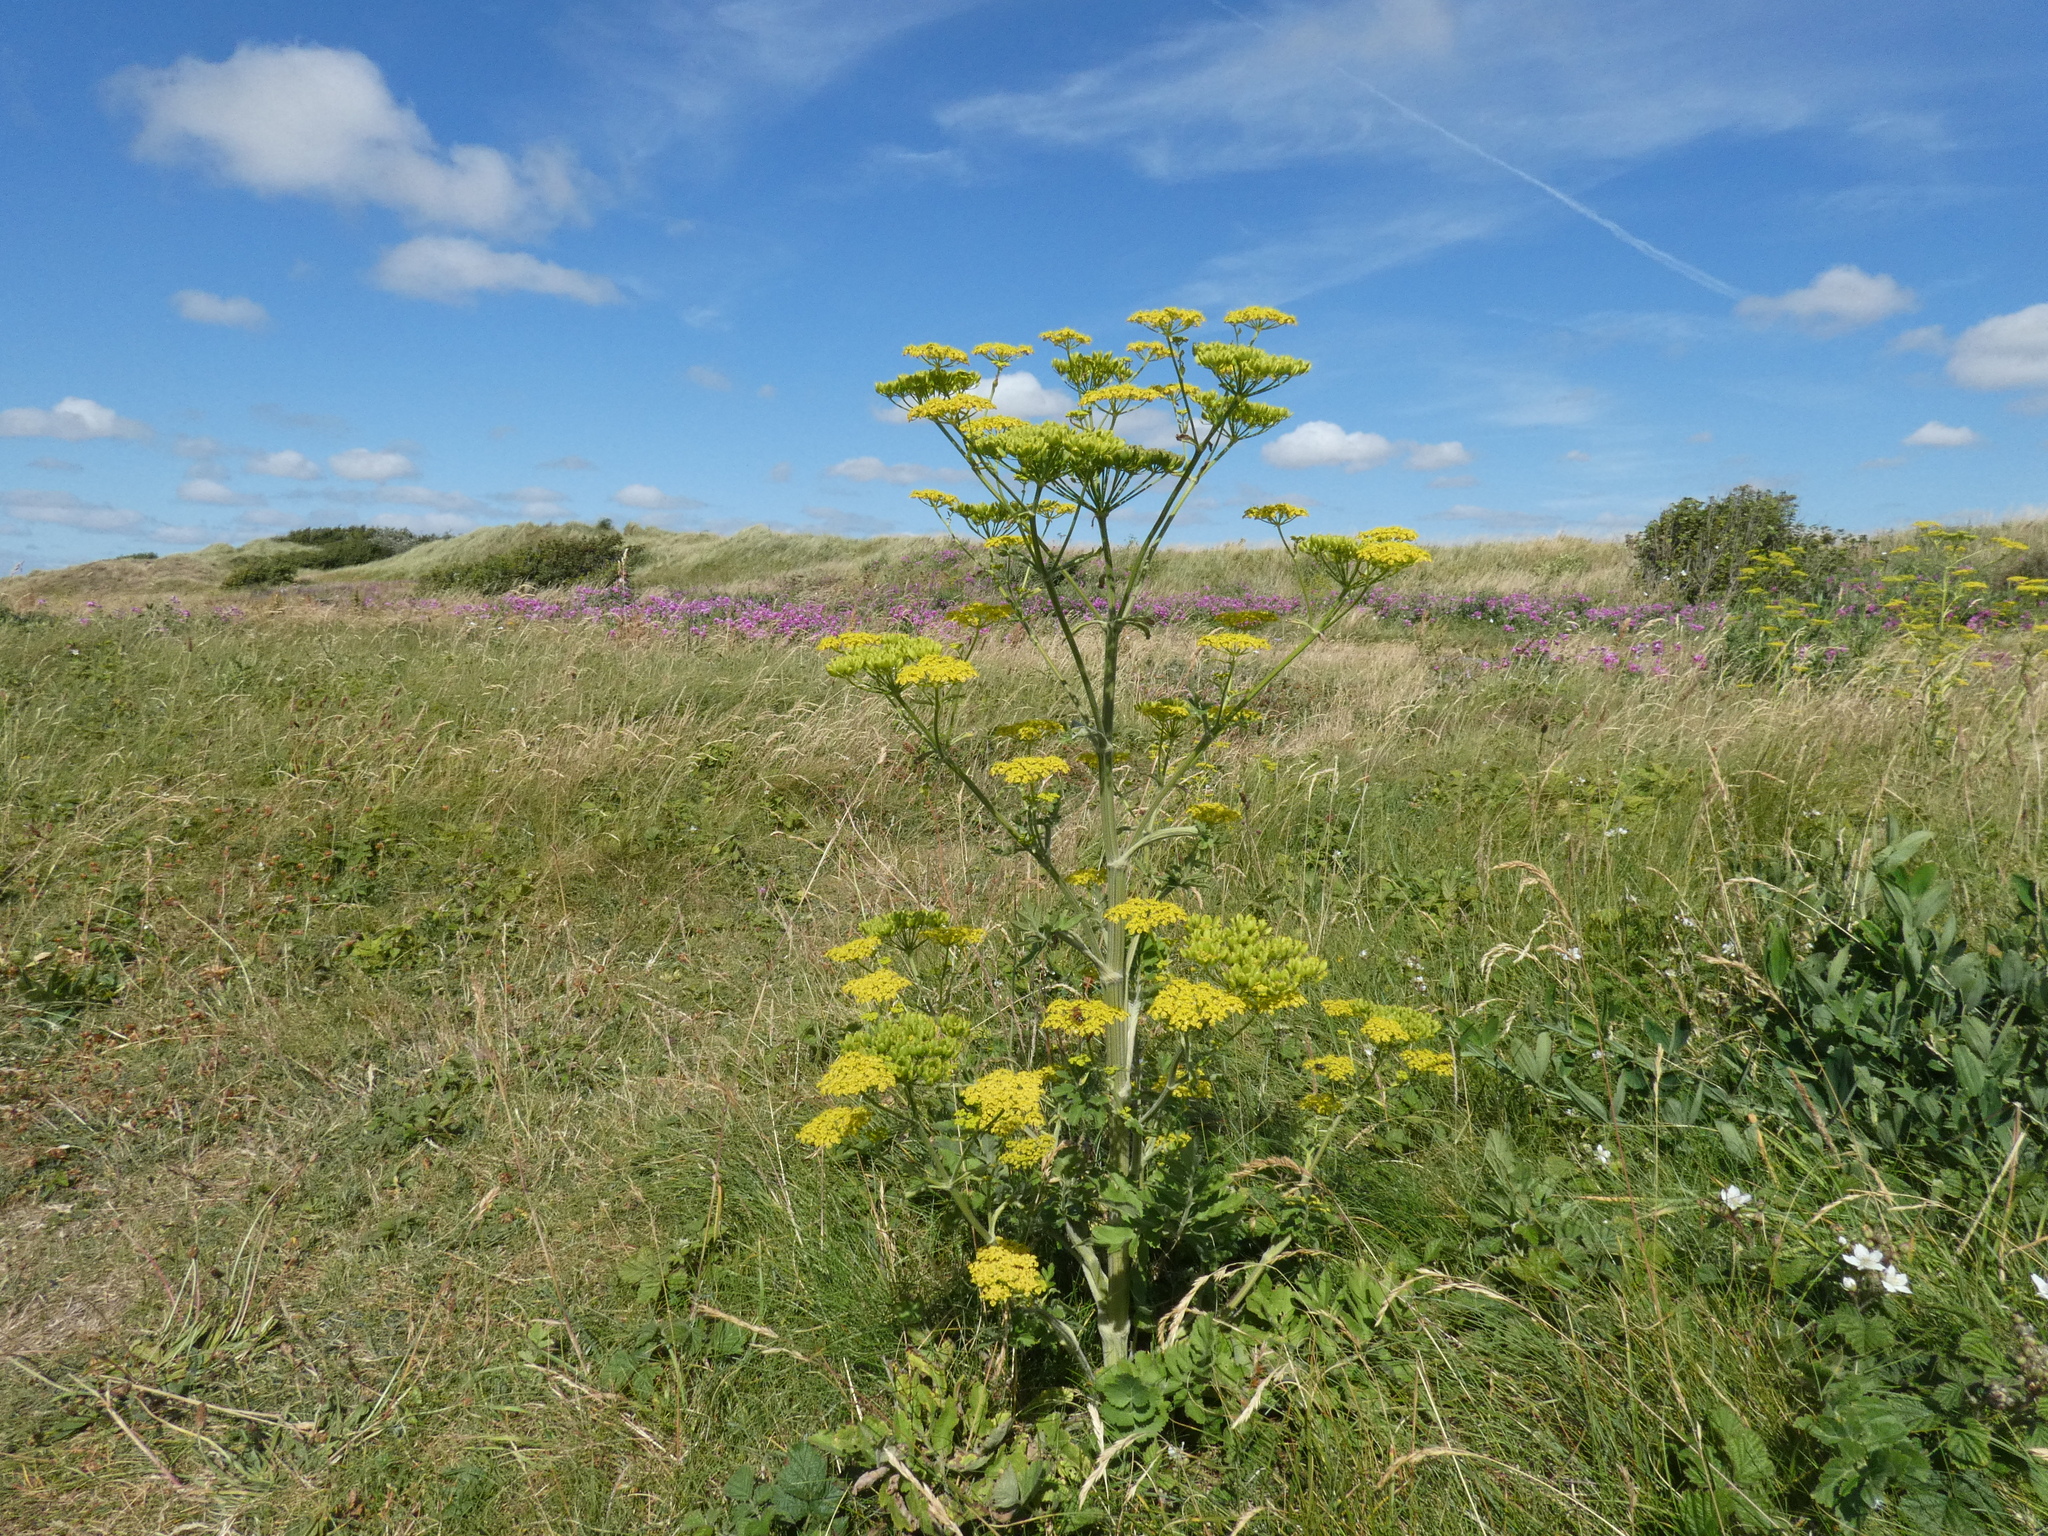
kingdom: Plantae
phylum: Tracheophyta
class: Magnoliopsida
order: Apiales
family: Apiaceae
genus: Pastinaca
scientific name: Pastinaca sativa
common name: Wild parsnip
